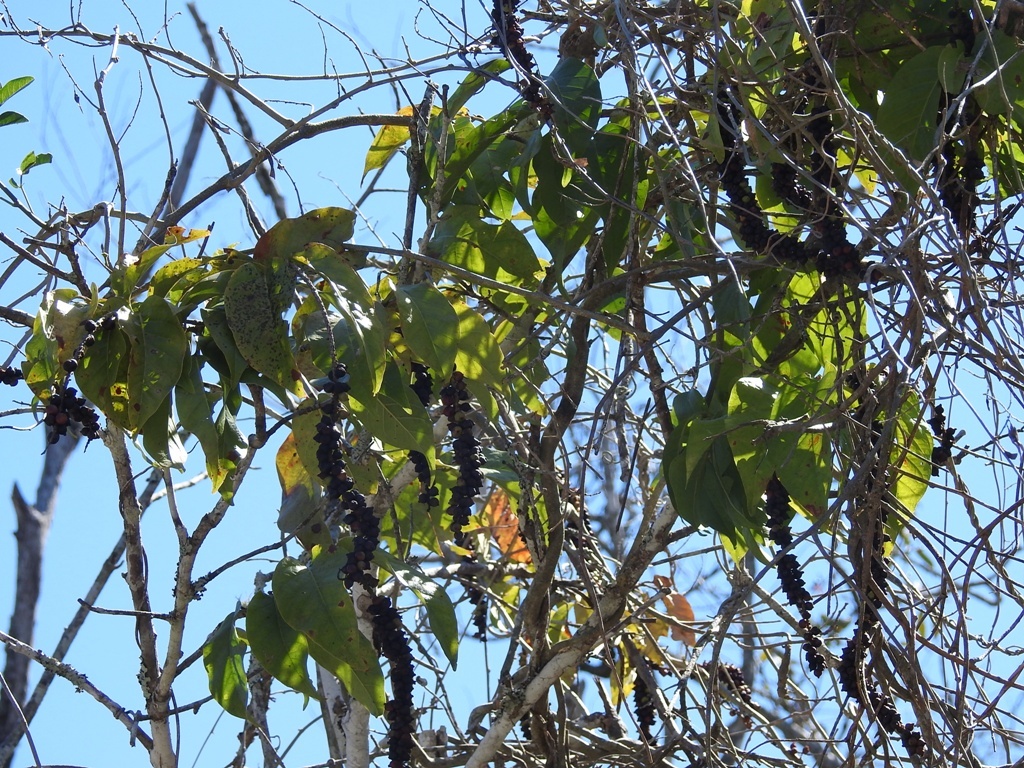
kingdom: Plantae
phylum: Tracheophyta
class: Magnoliopsida
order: Caryophyllales
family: Polygonaceae
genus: Coccoloba
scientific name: Coccoloba montana
